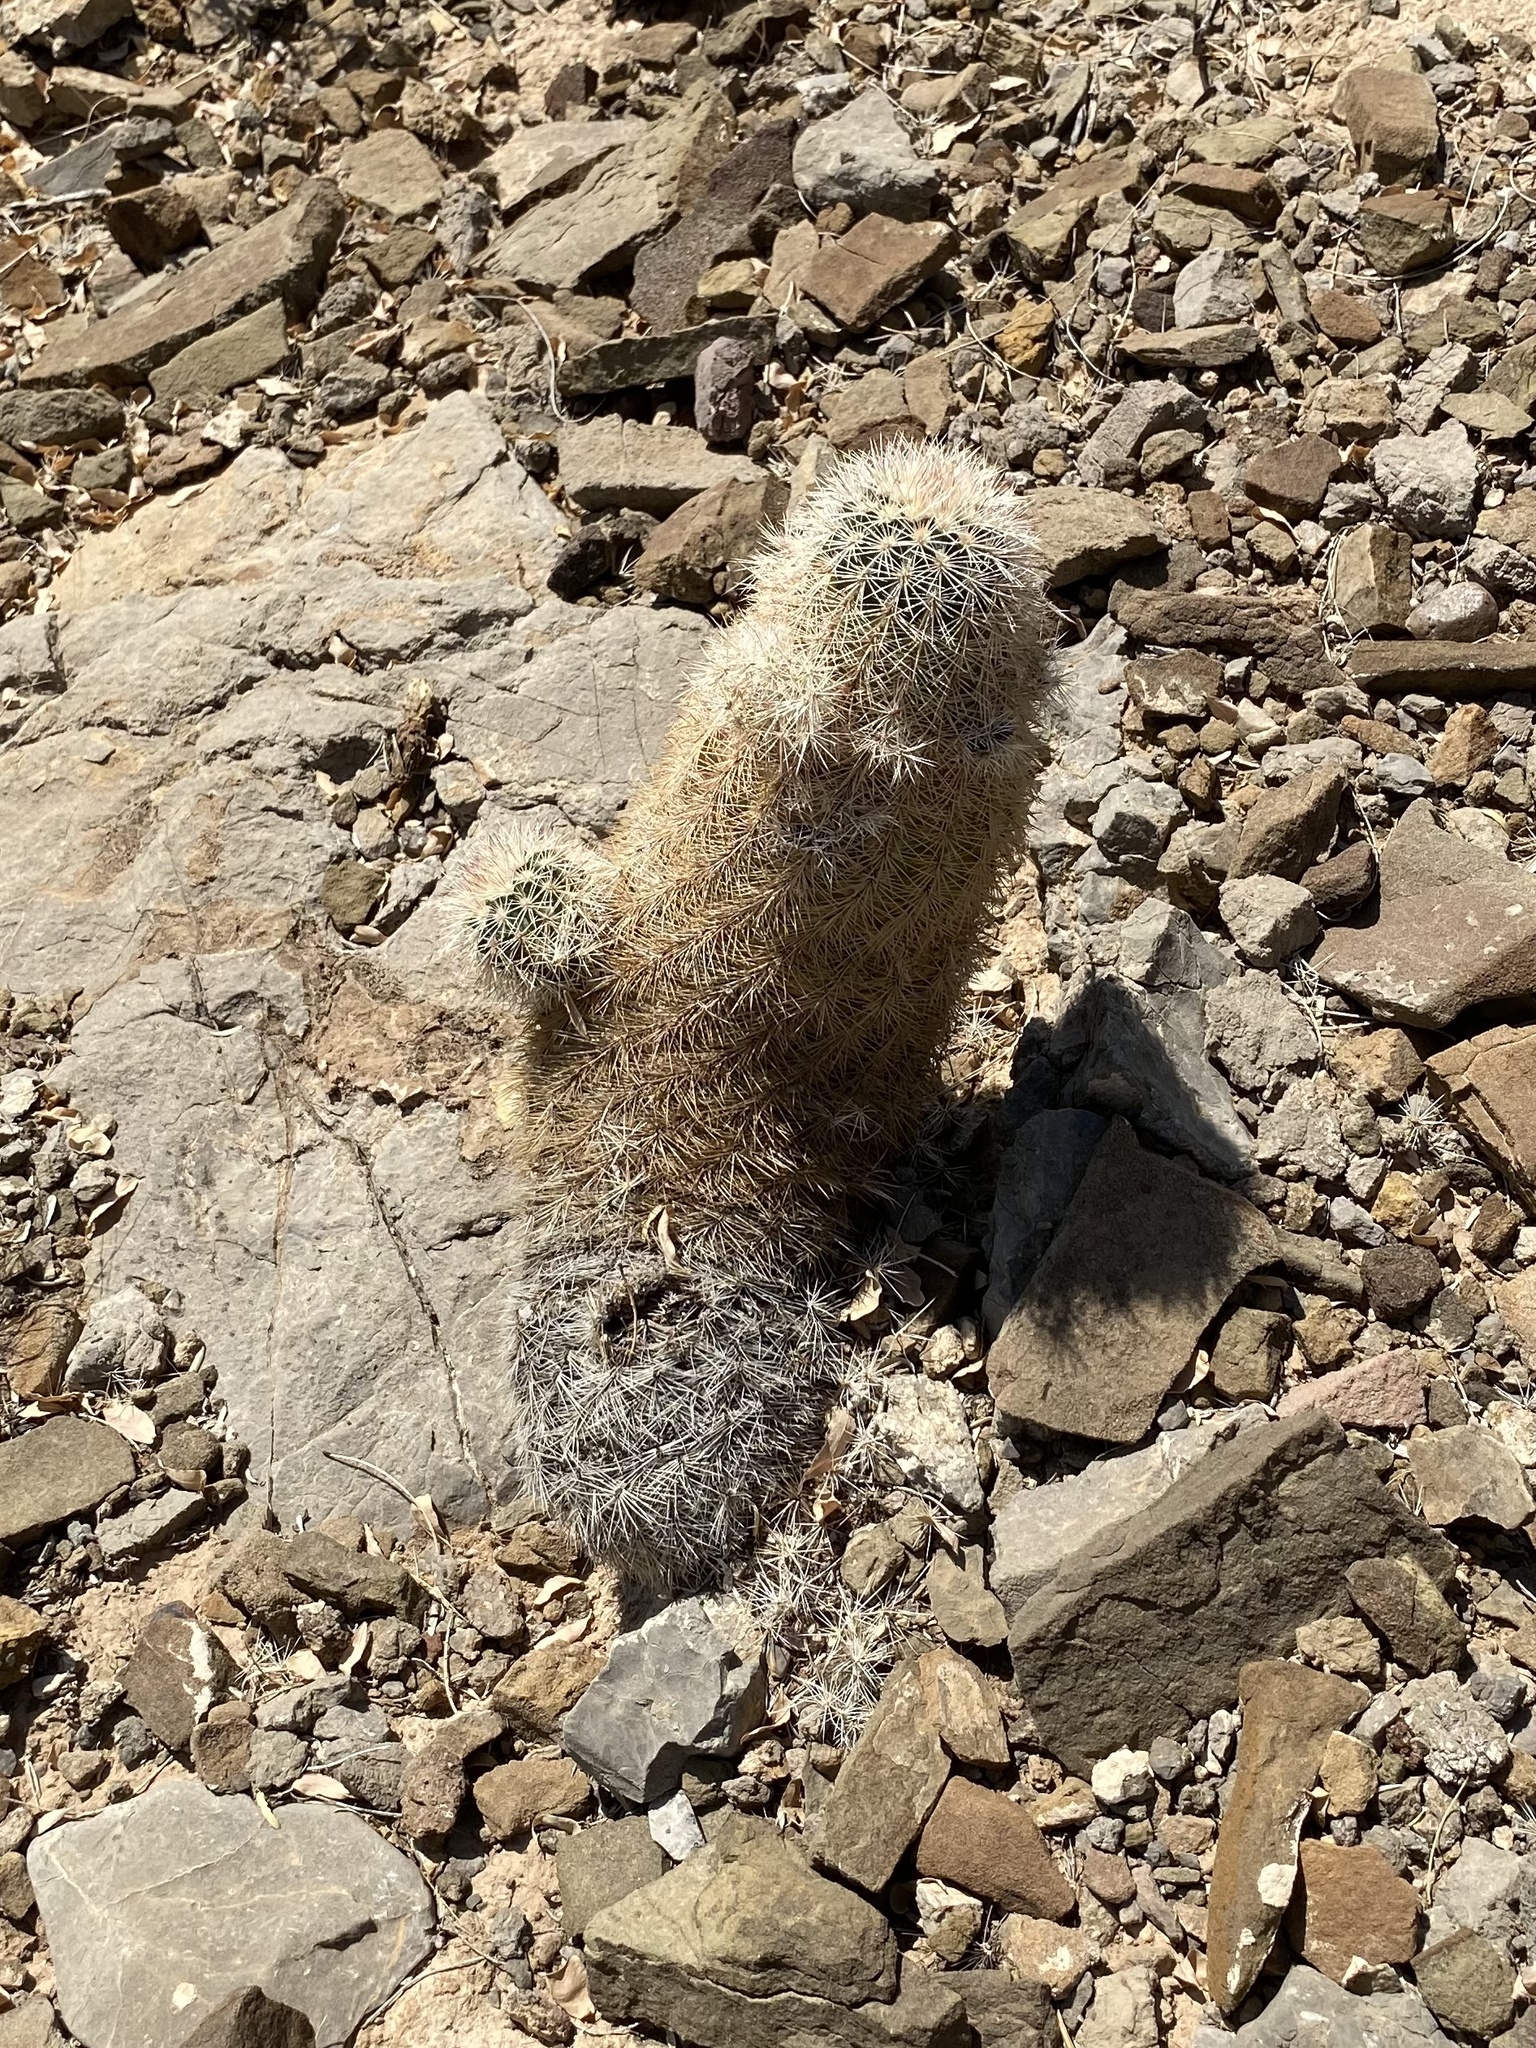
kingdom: Plantae
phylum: Tracheophyta
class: Magnoliopsida
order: Caryophyllales
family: Cactaceae
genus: Echinocereus
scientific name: Echinocereus dasyacanthus
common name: Spiny hedgehog cactus
